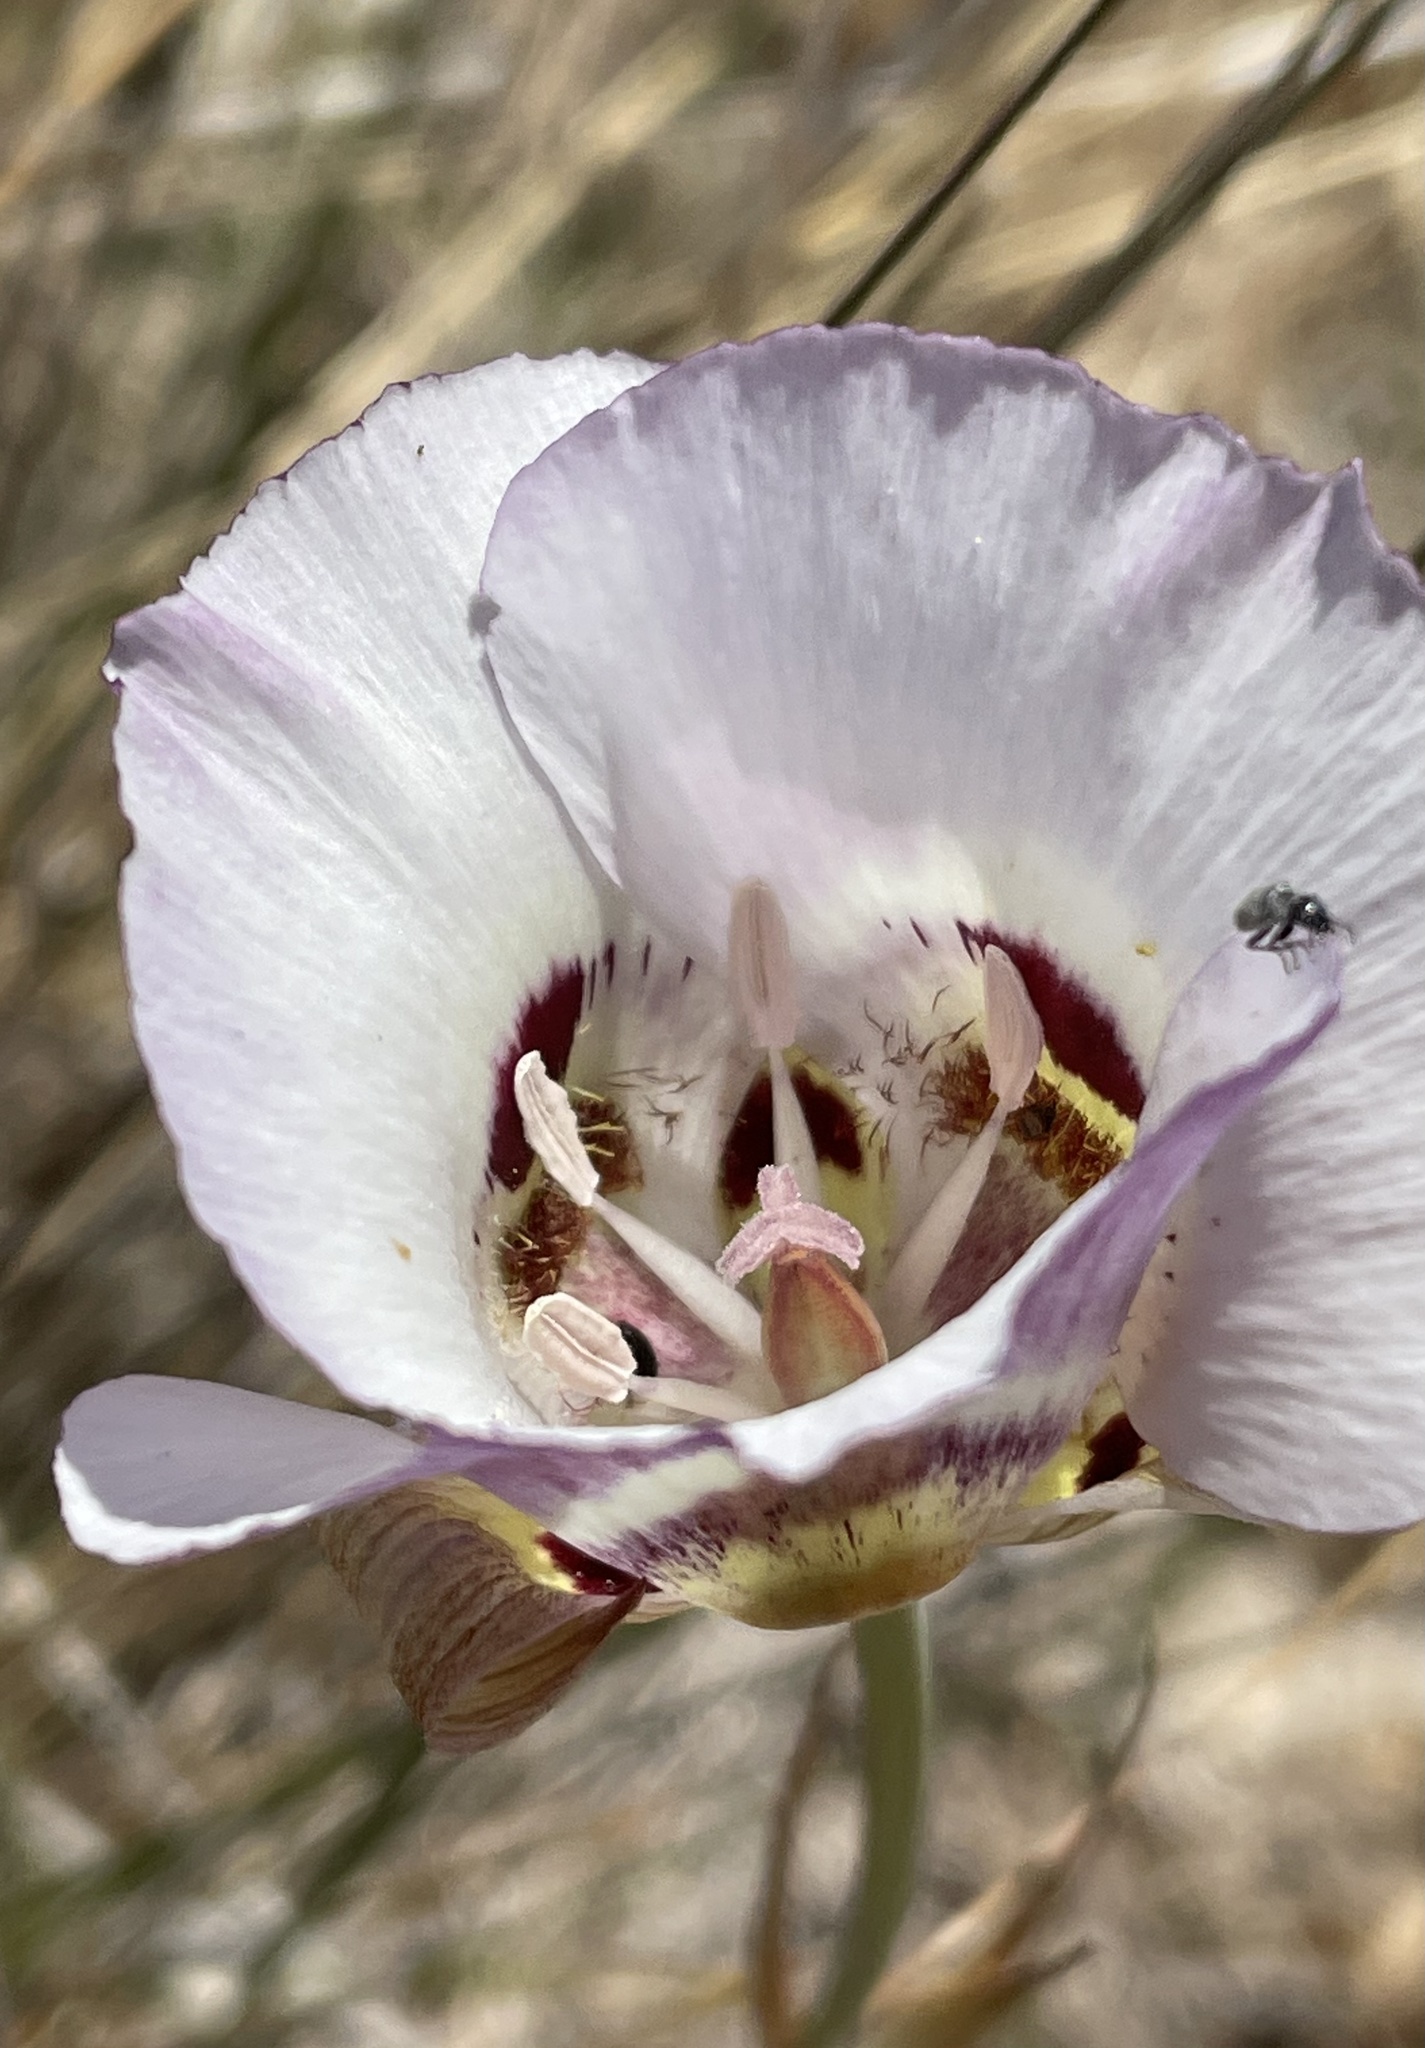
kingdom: Plantae
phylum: Tracheophyta
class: Liliopsida
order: Liliales
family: Liliaceae
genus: Calochortus
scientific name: Calochortus argillosus
